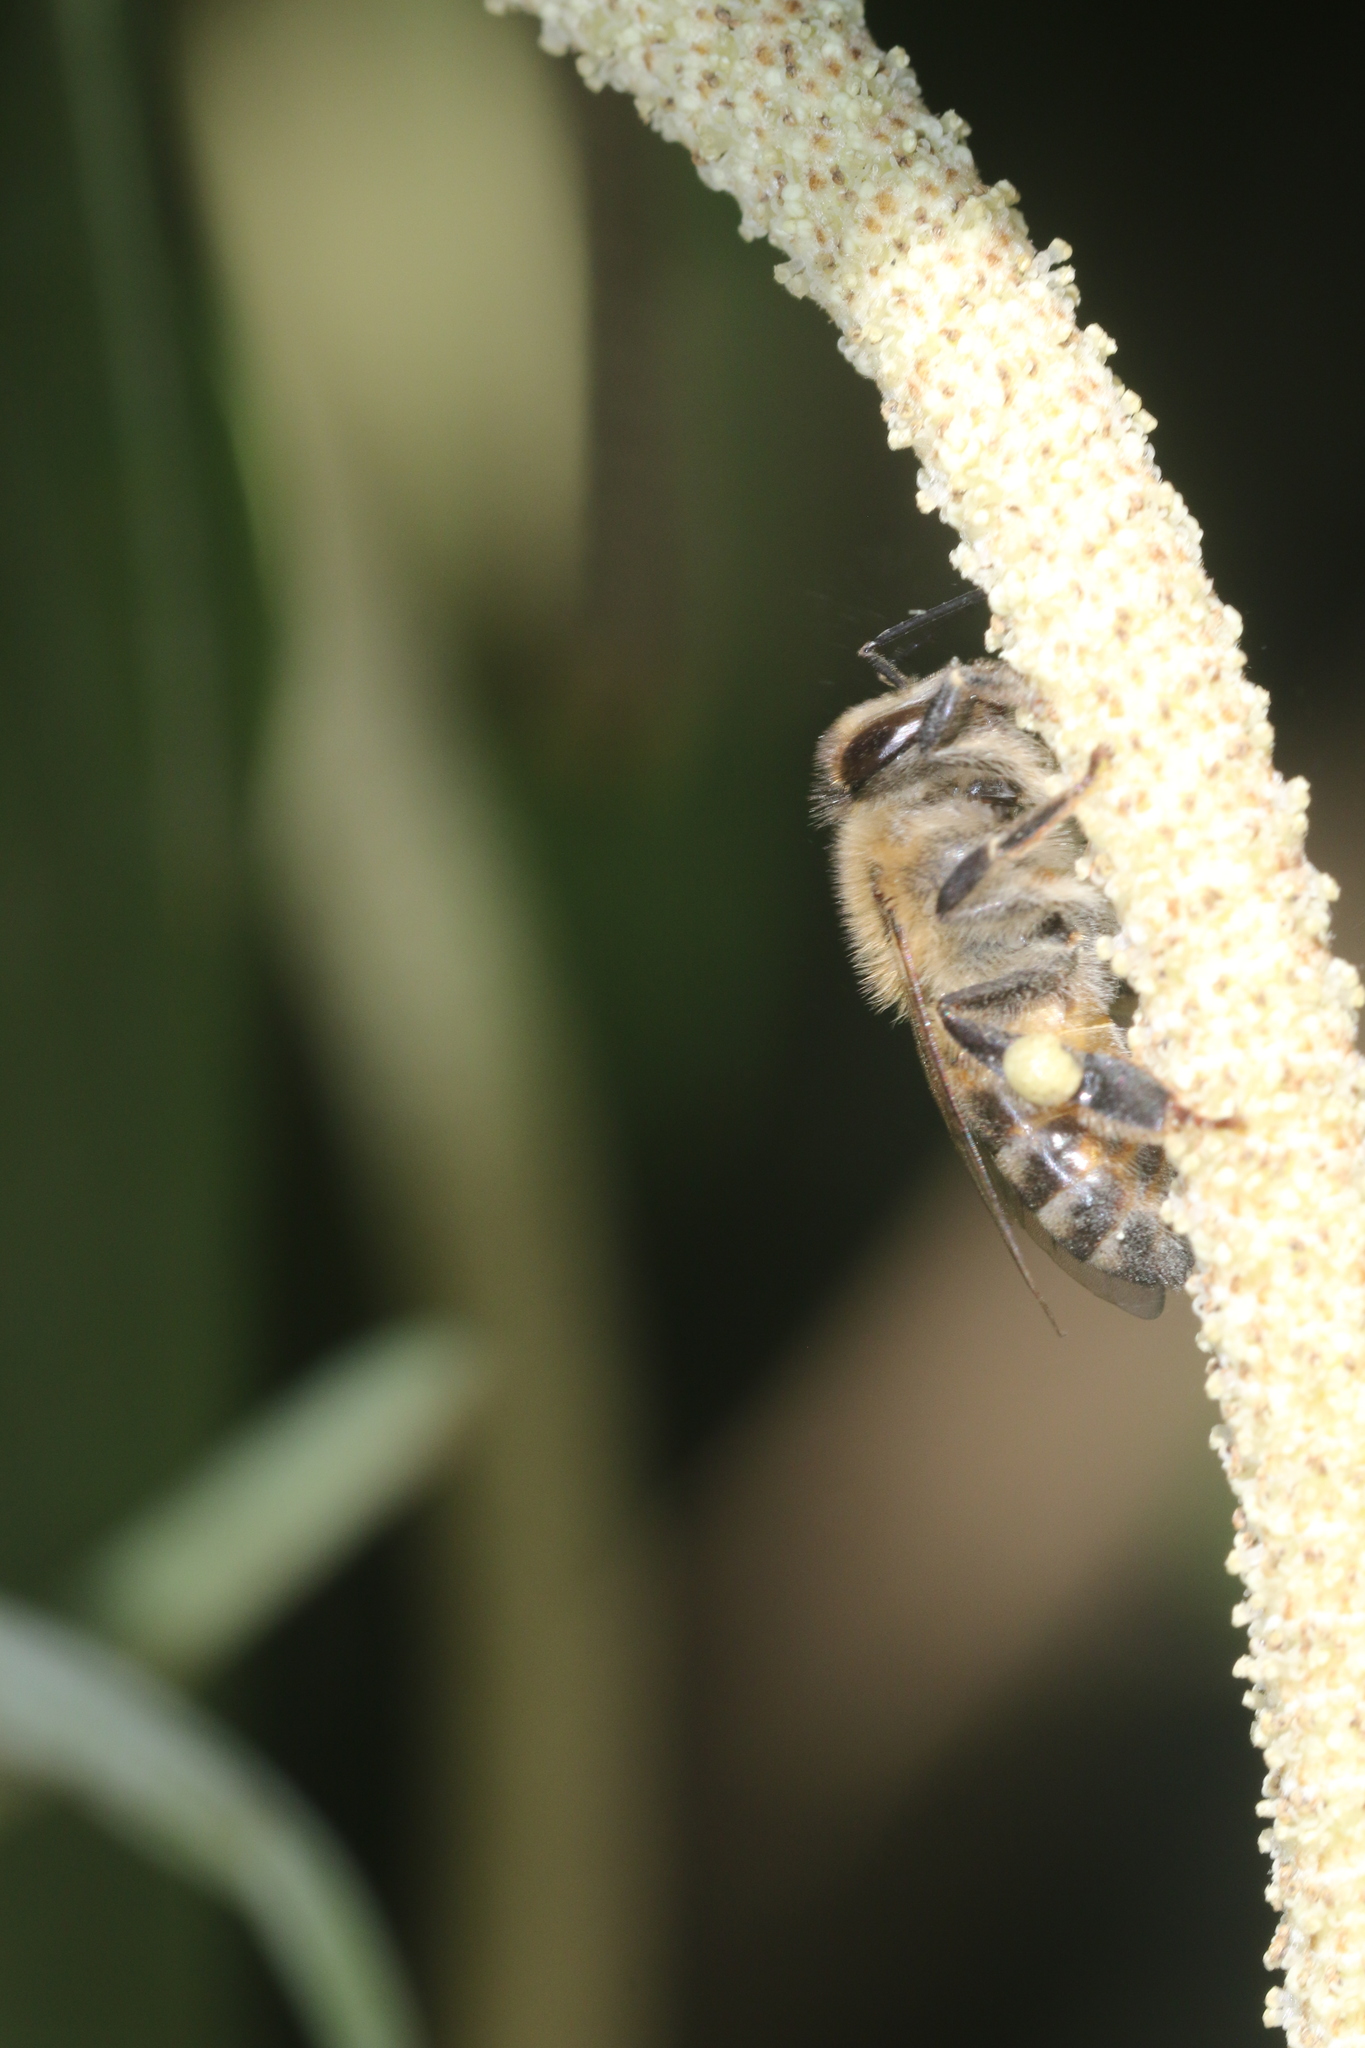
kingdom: Animalia
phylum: Arthropoda
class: Insecta
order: Hymenoptera
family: Apidae
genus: Apis
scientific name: Apis mellifera
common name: Honey bee
